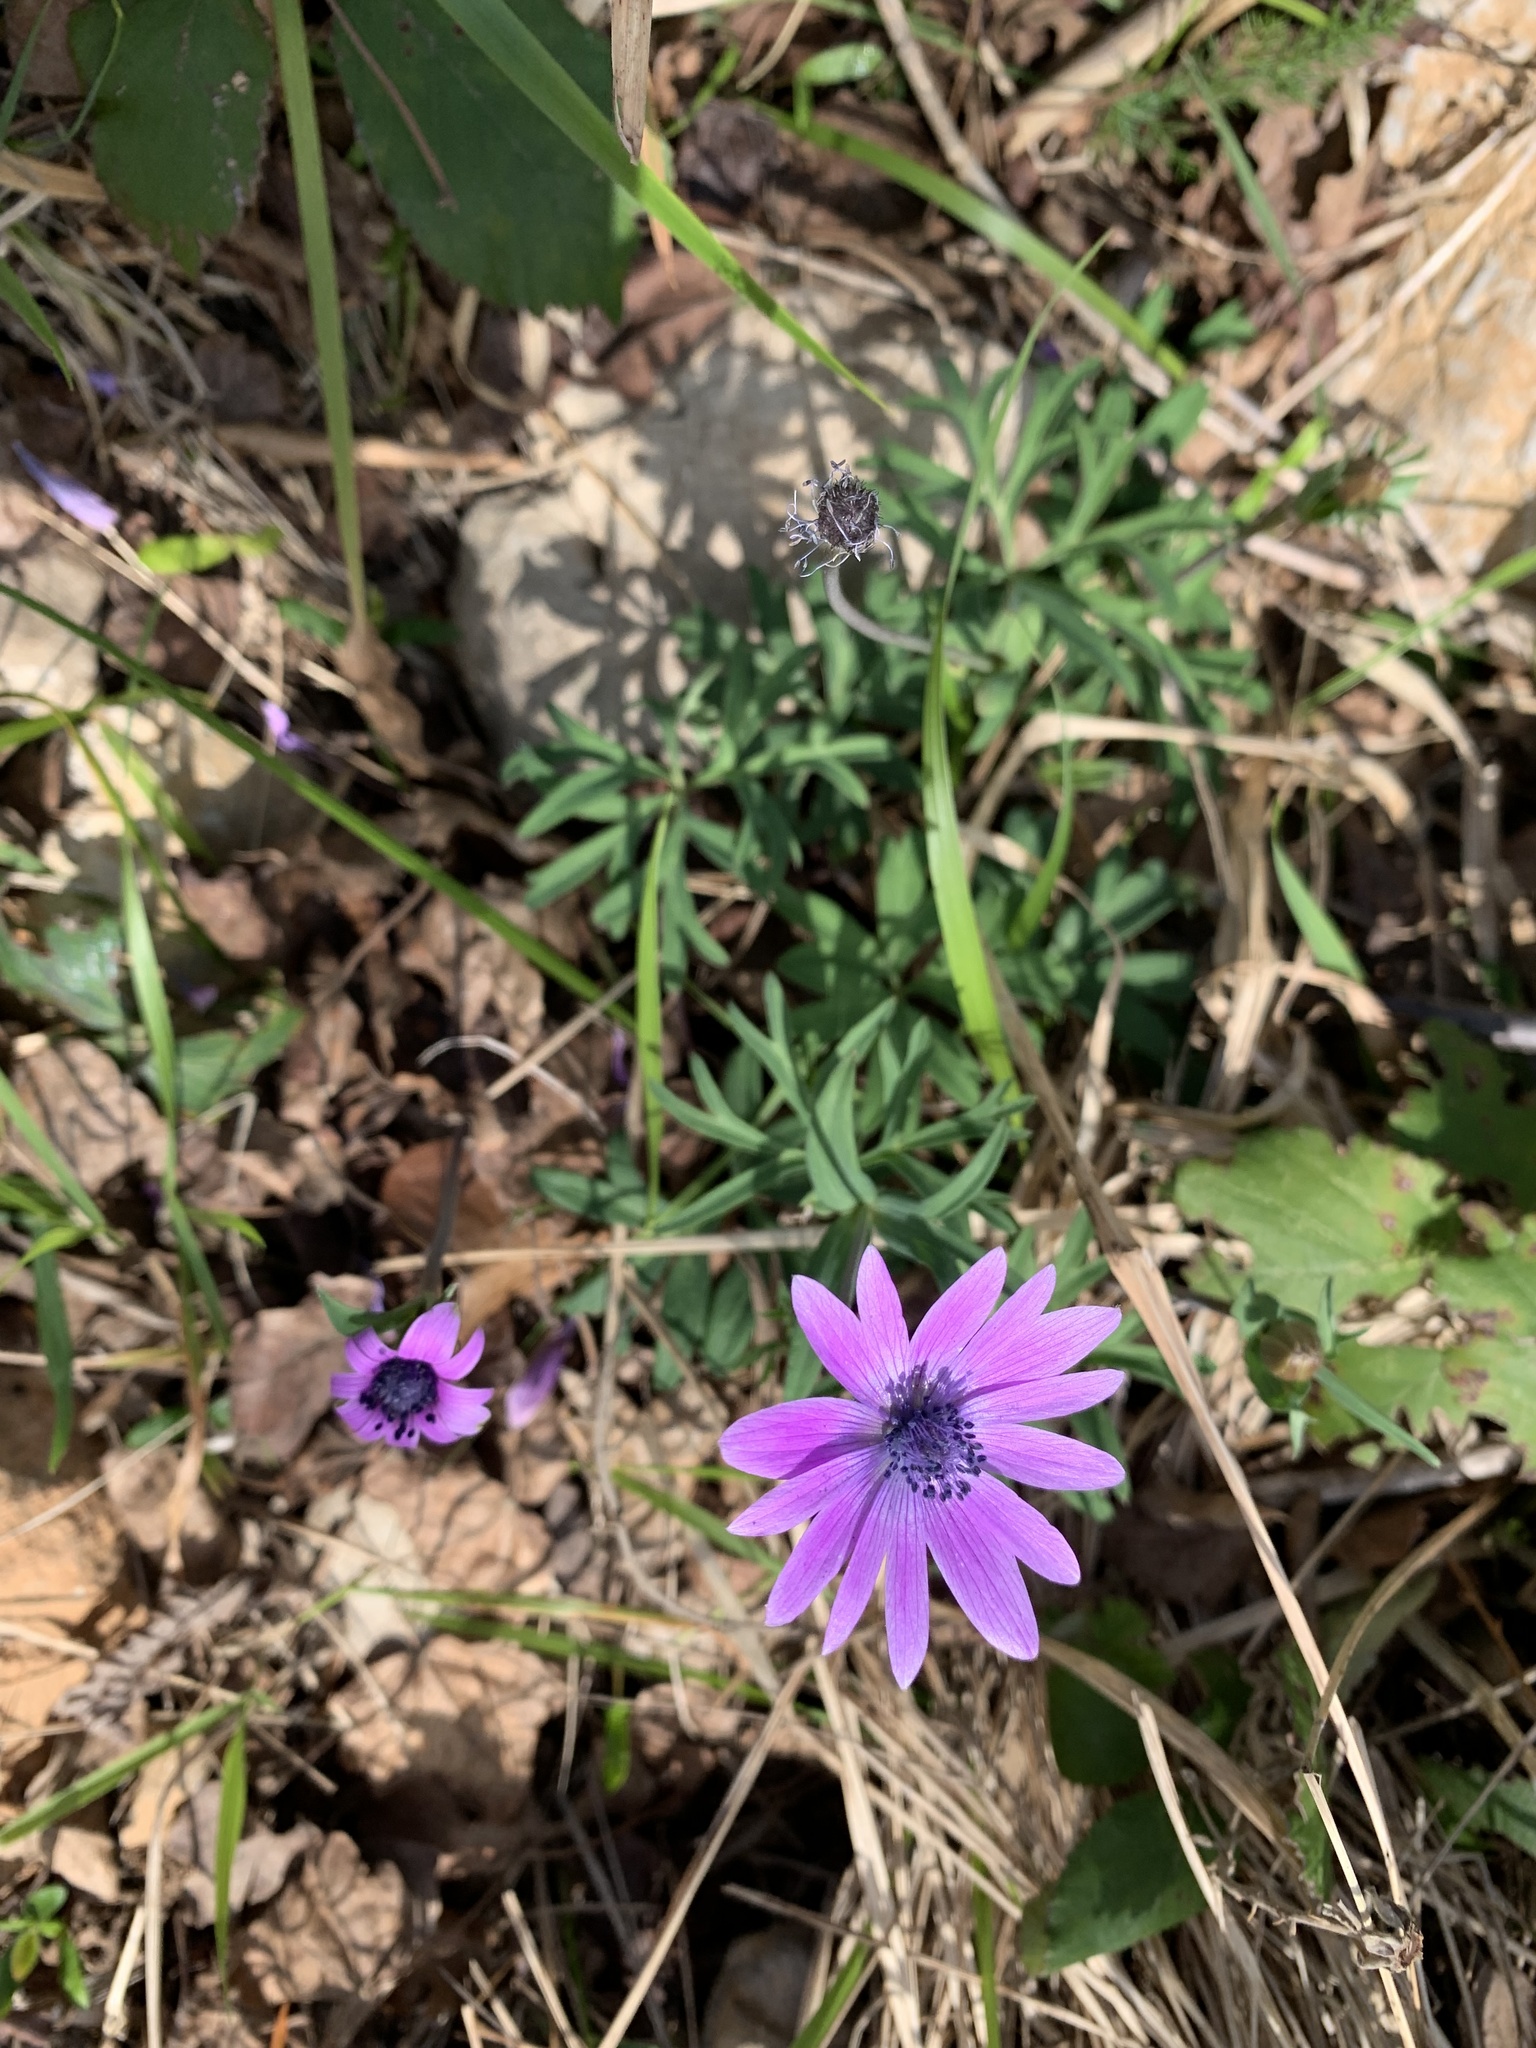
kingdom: Plantae
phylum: Tracheophyta
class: Magnoliopsida
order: Ranunculales
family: Ranunculaceae
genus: Anemone
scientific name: Anemone hortensis
